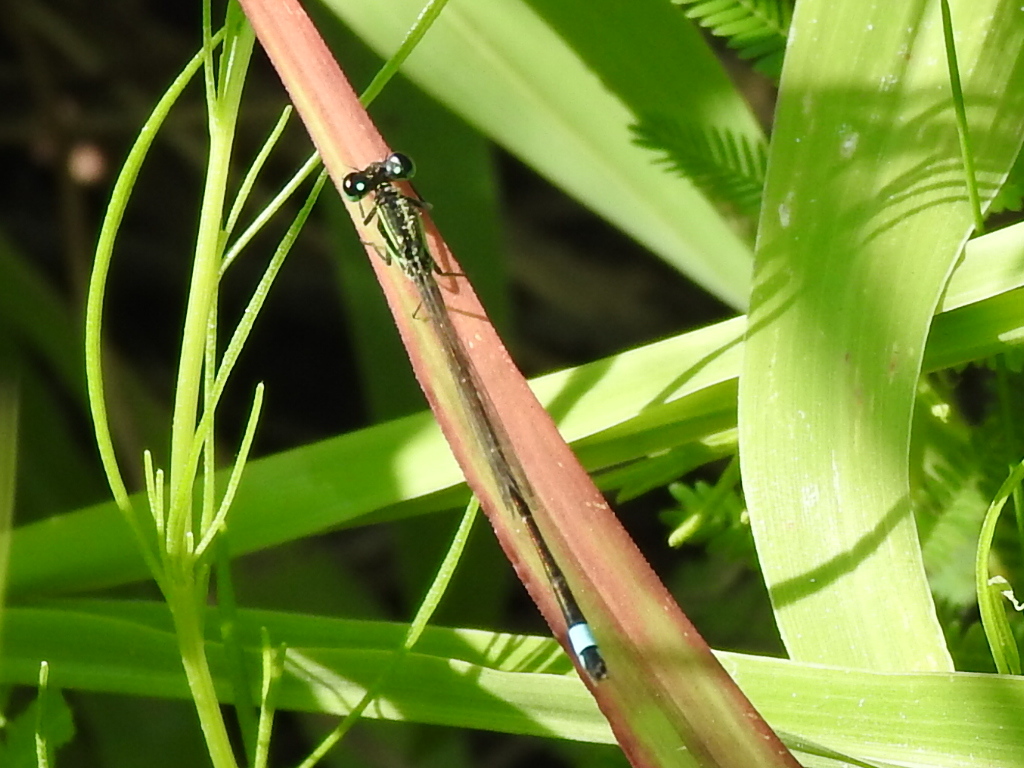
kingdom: Animalia
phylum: Arthropoda
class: Insecta
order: Odonata
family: Coenagrionidae
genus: Ischnura
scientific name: Ischnura ramburii
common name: Rambur's forktail
